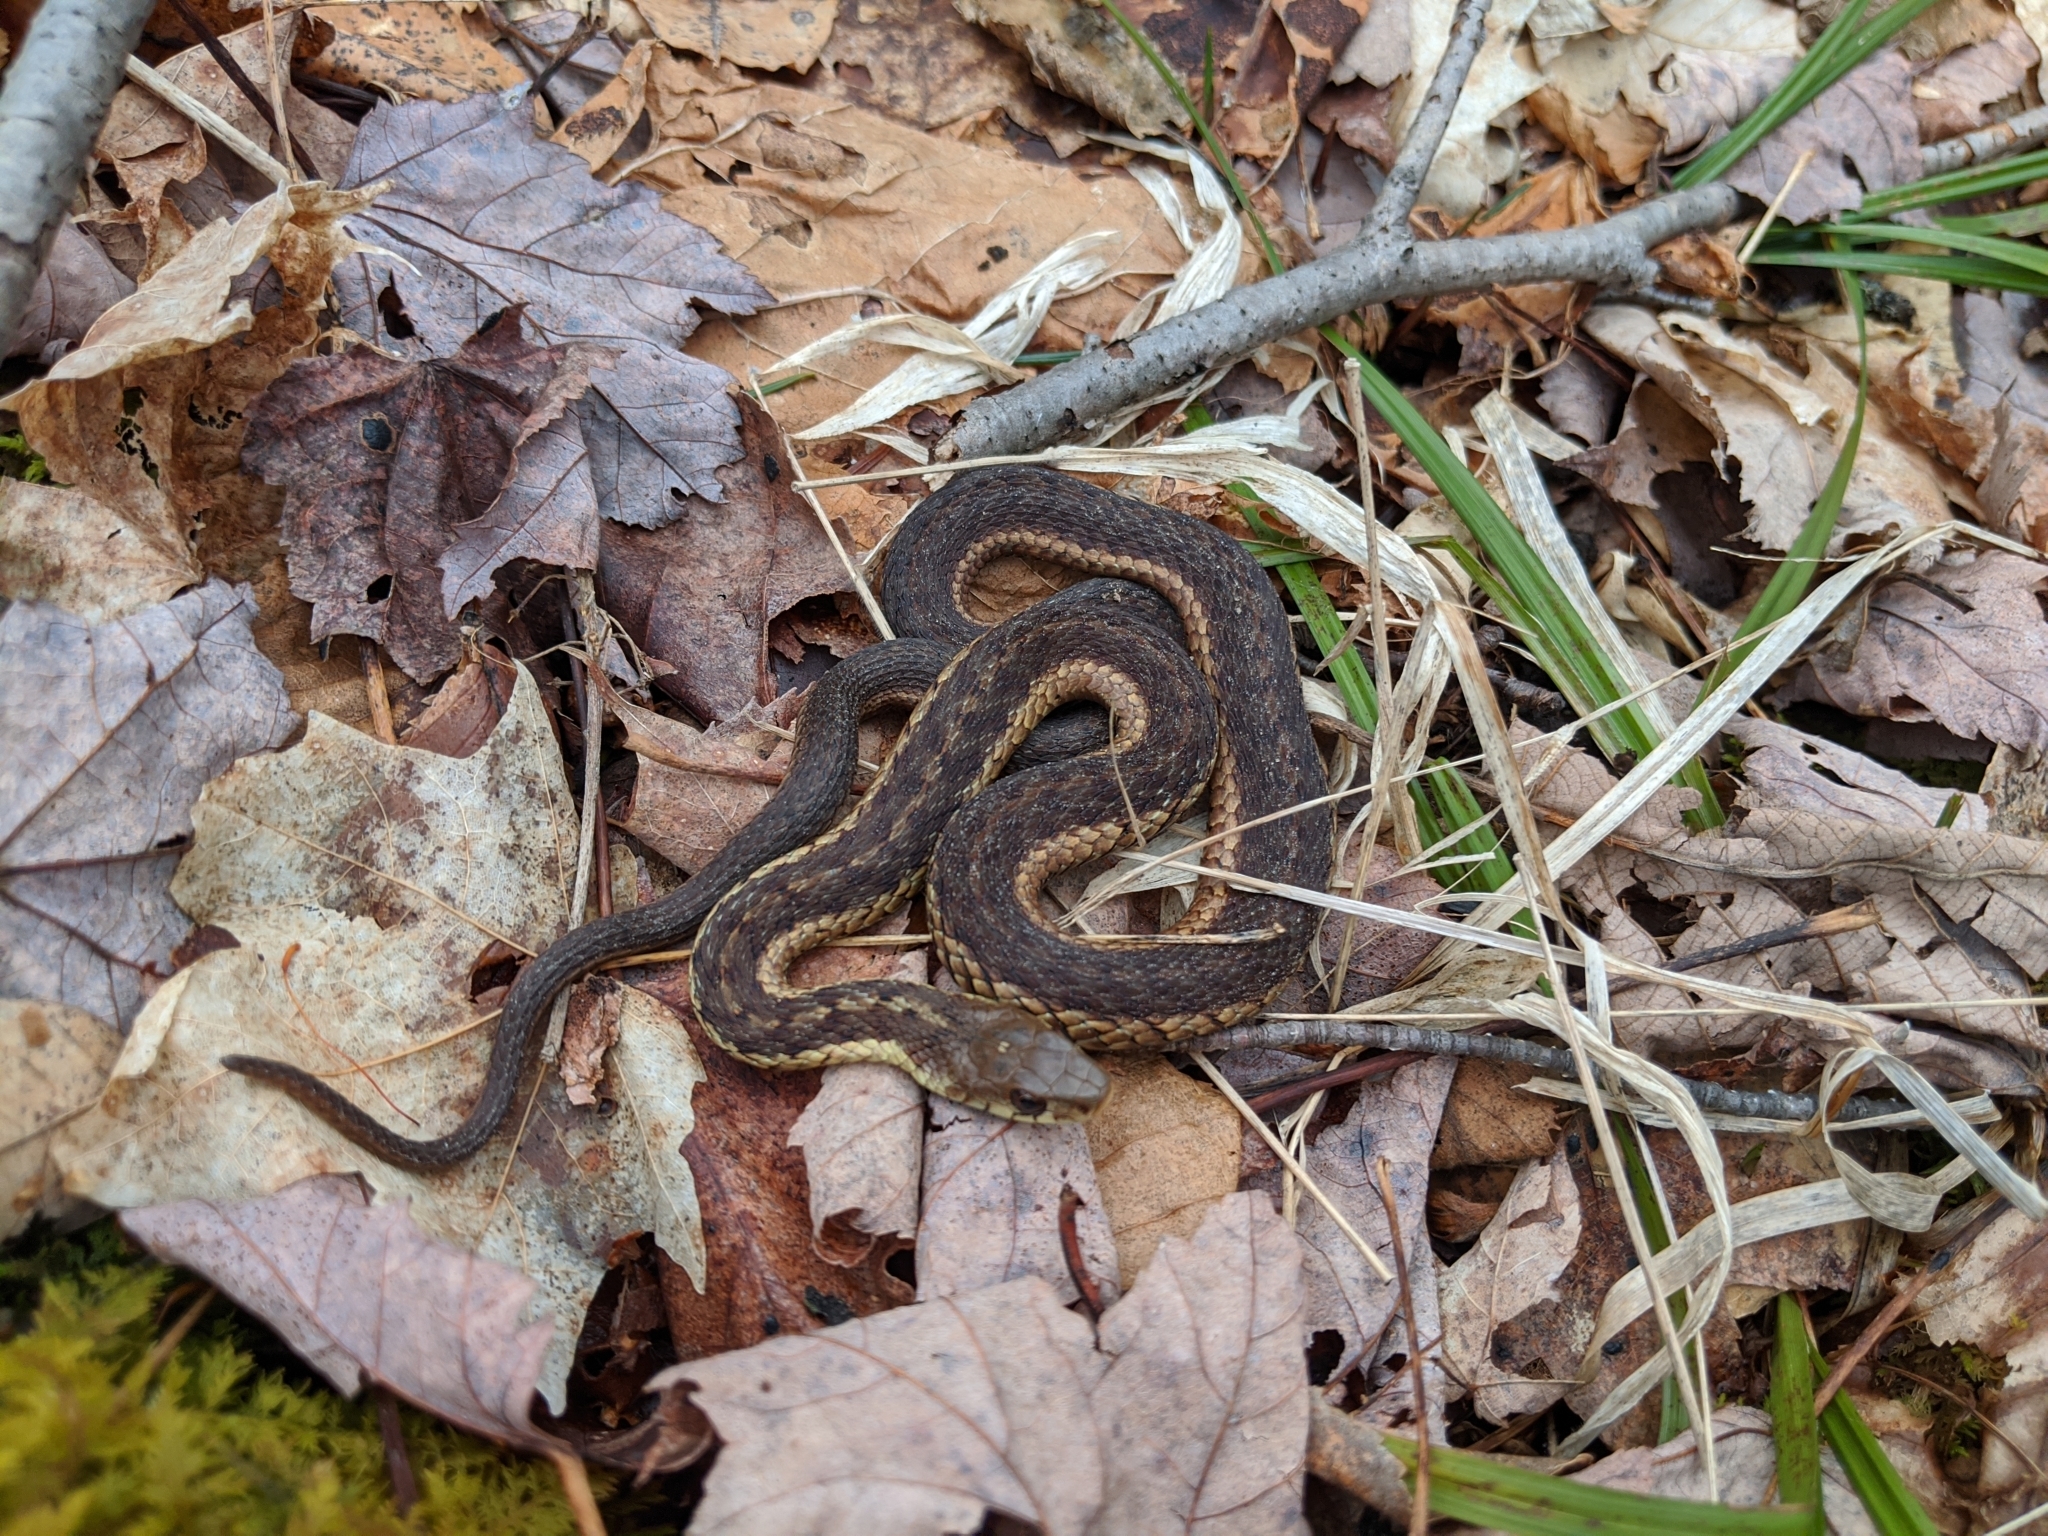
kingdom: Animalia
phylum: Chordata
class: Squamata
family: Colubridae
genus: Thamnophis
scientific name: Thamnophis sirtalis
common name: Common garter snake
